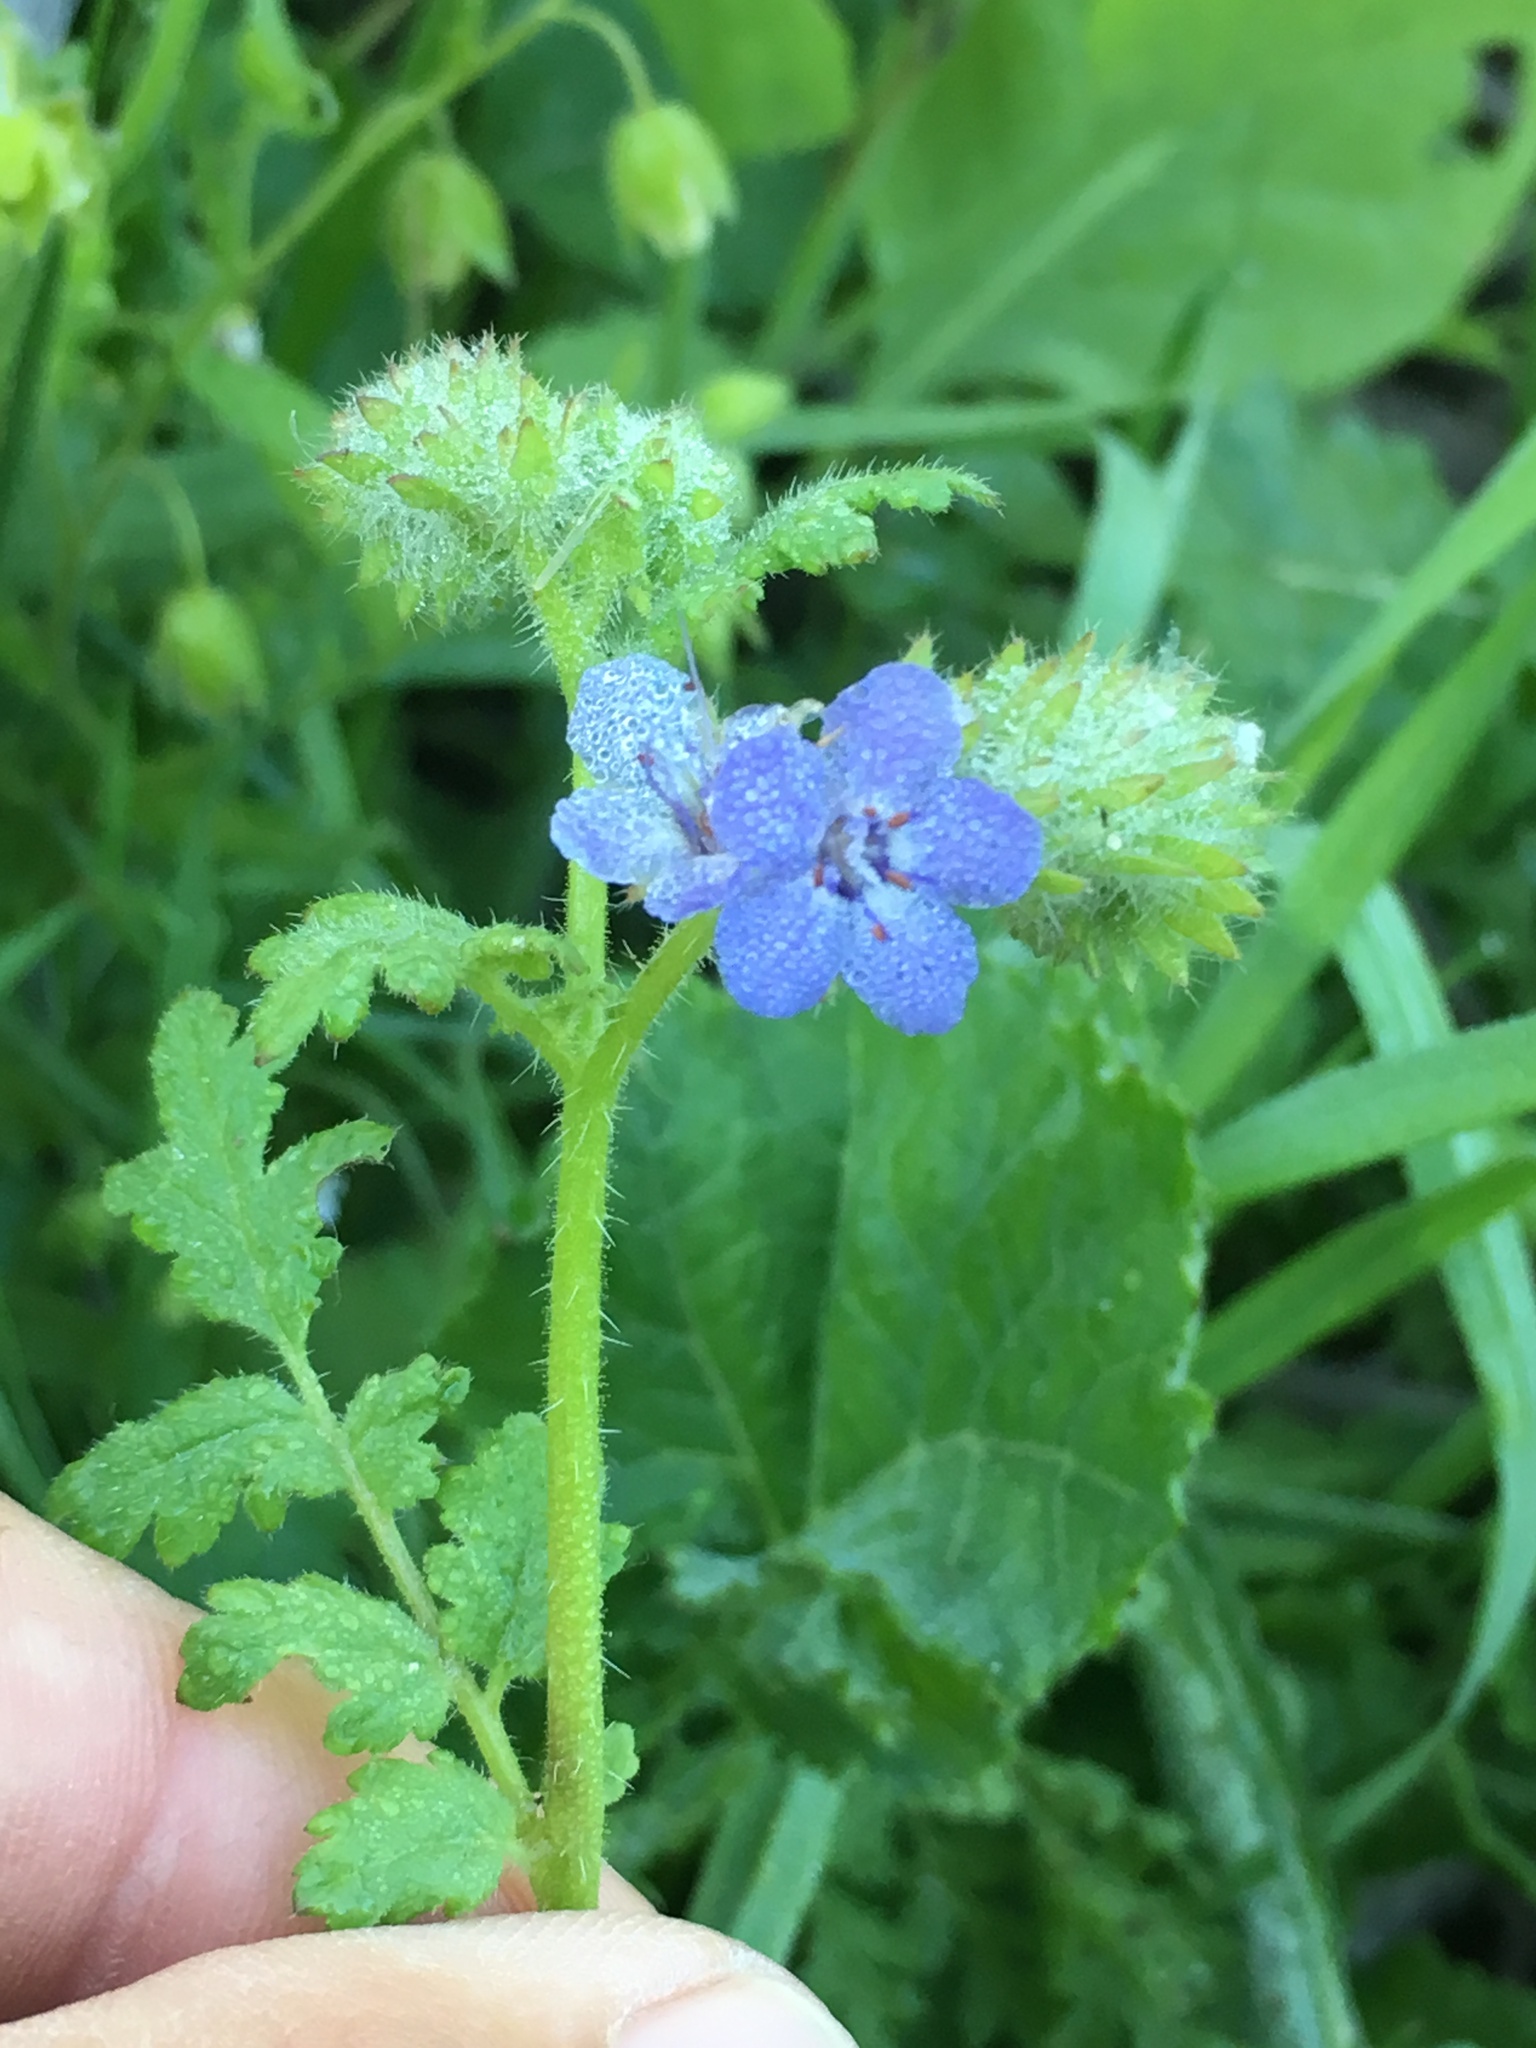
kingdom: Plantae
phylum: Tracheophyta
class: Magnoliopsida
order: Boraginales
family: Hydrophyllaceae
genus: Phacelia
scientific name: Phacelia distans
